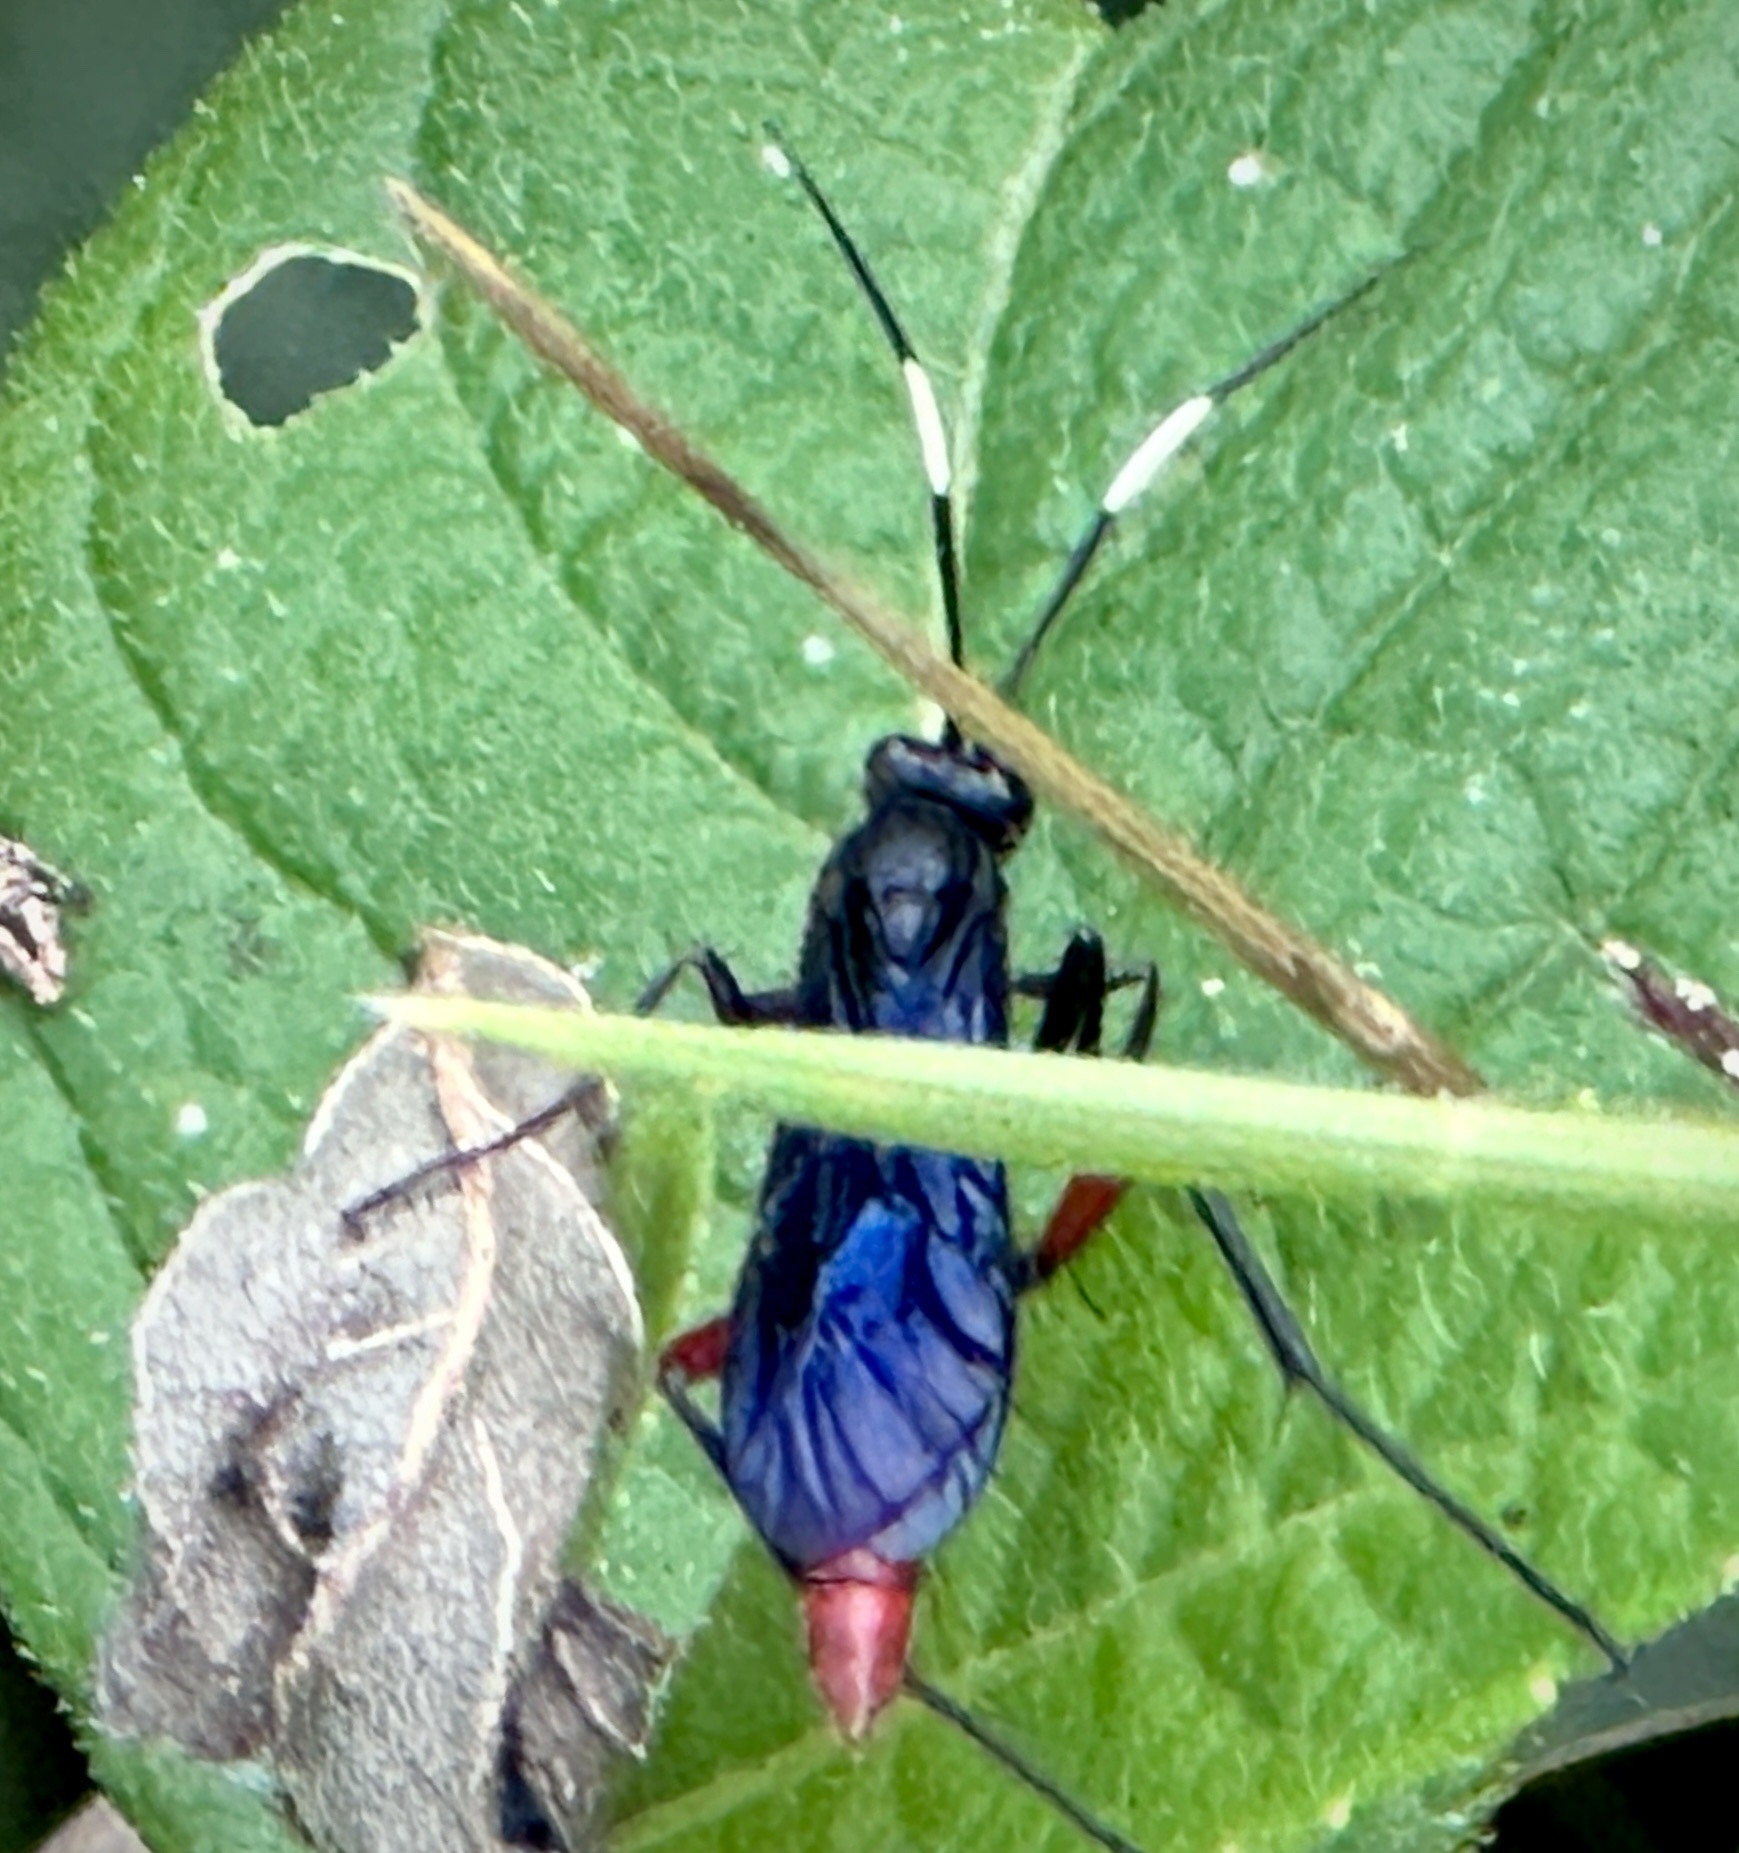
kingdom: Animalia
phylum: Arthropoda
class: Insecta
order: Hymenoptera
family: Ichneumonidae
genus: Limonethe
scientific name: Limonethe maurator
